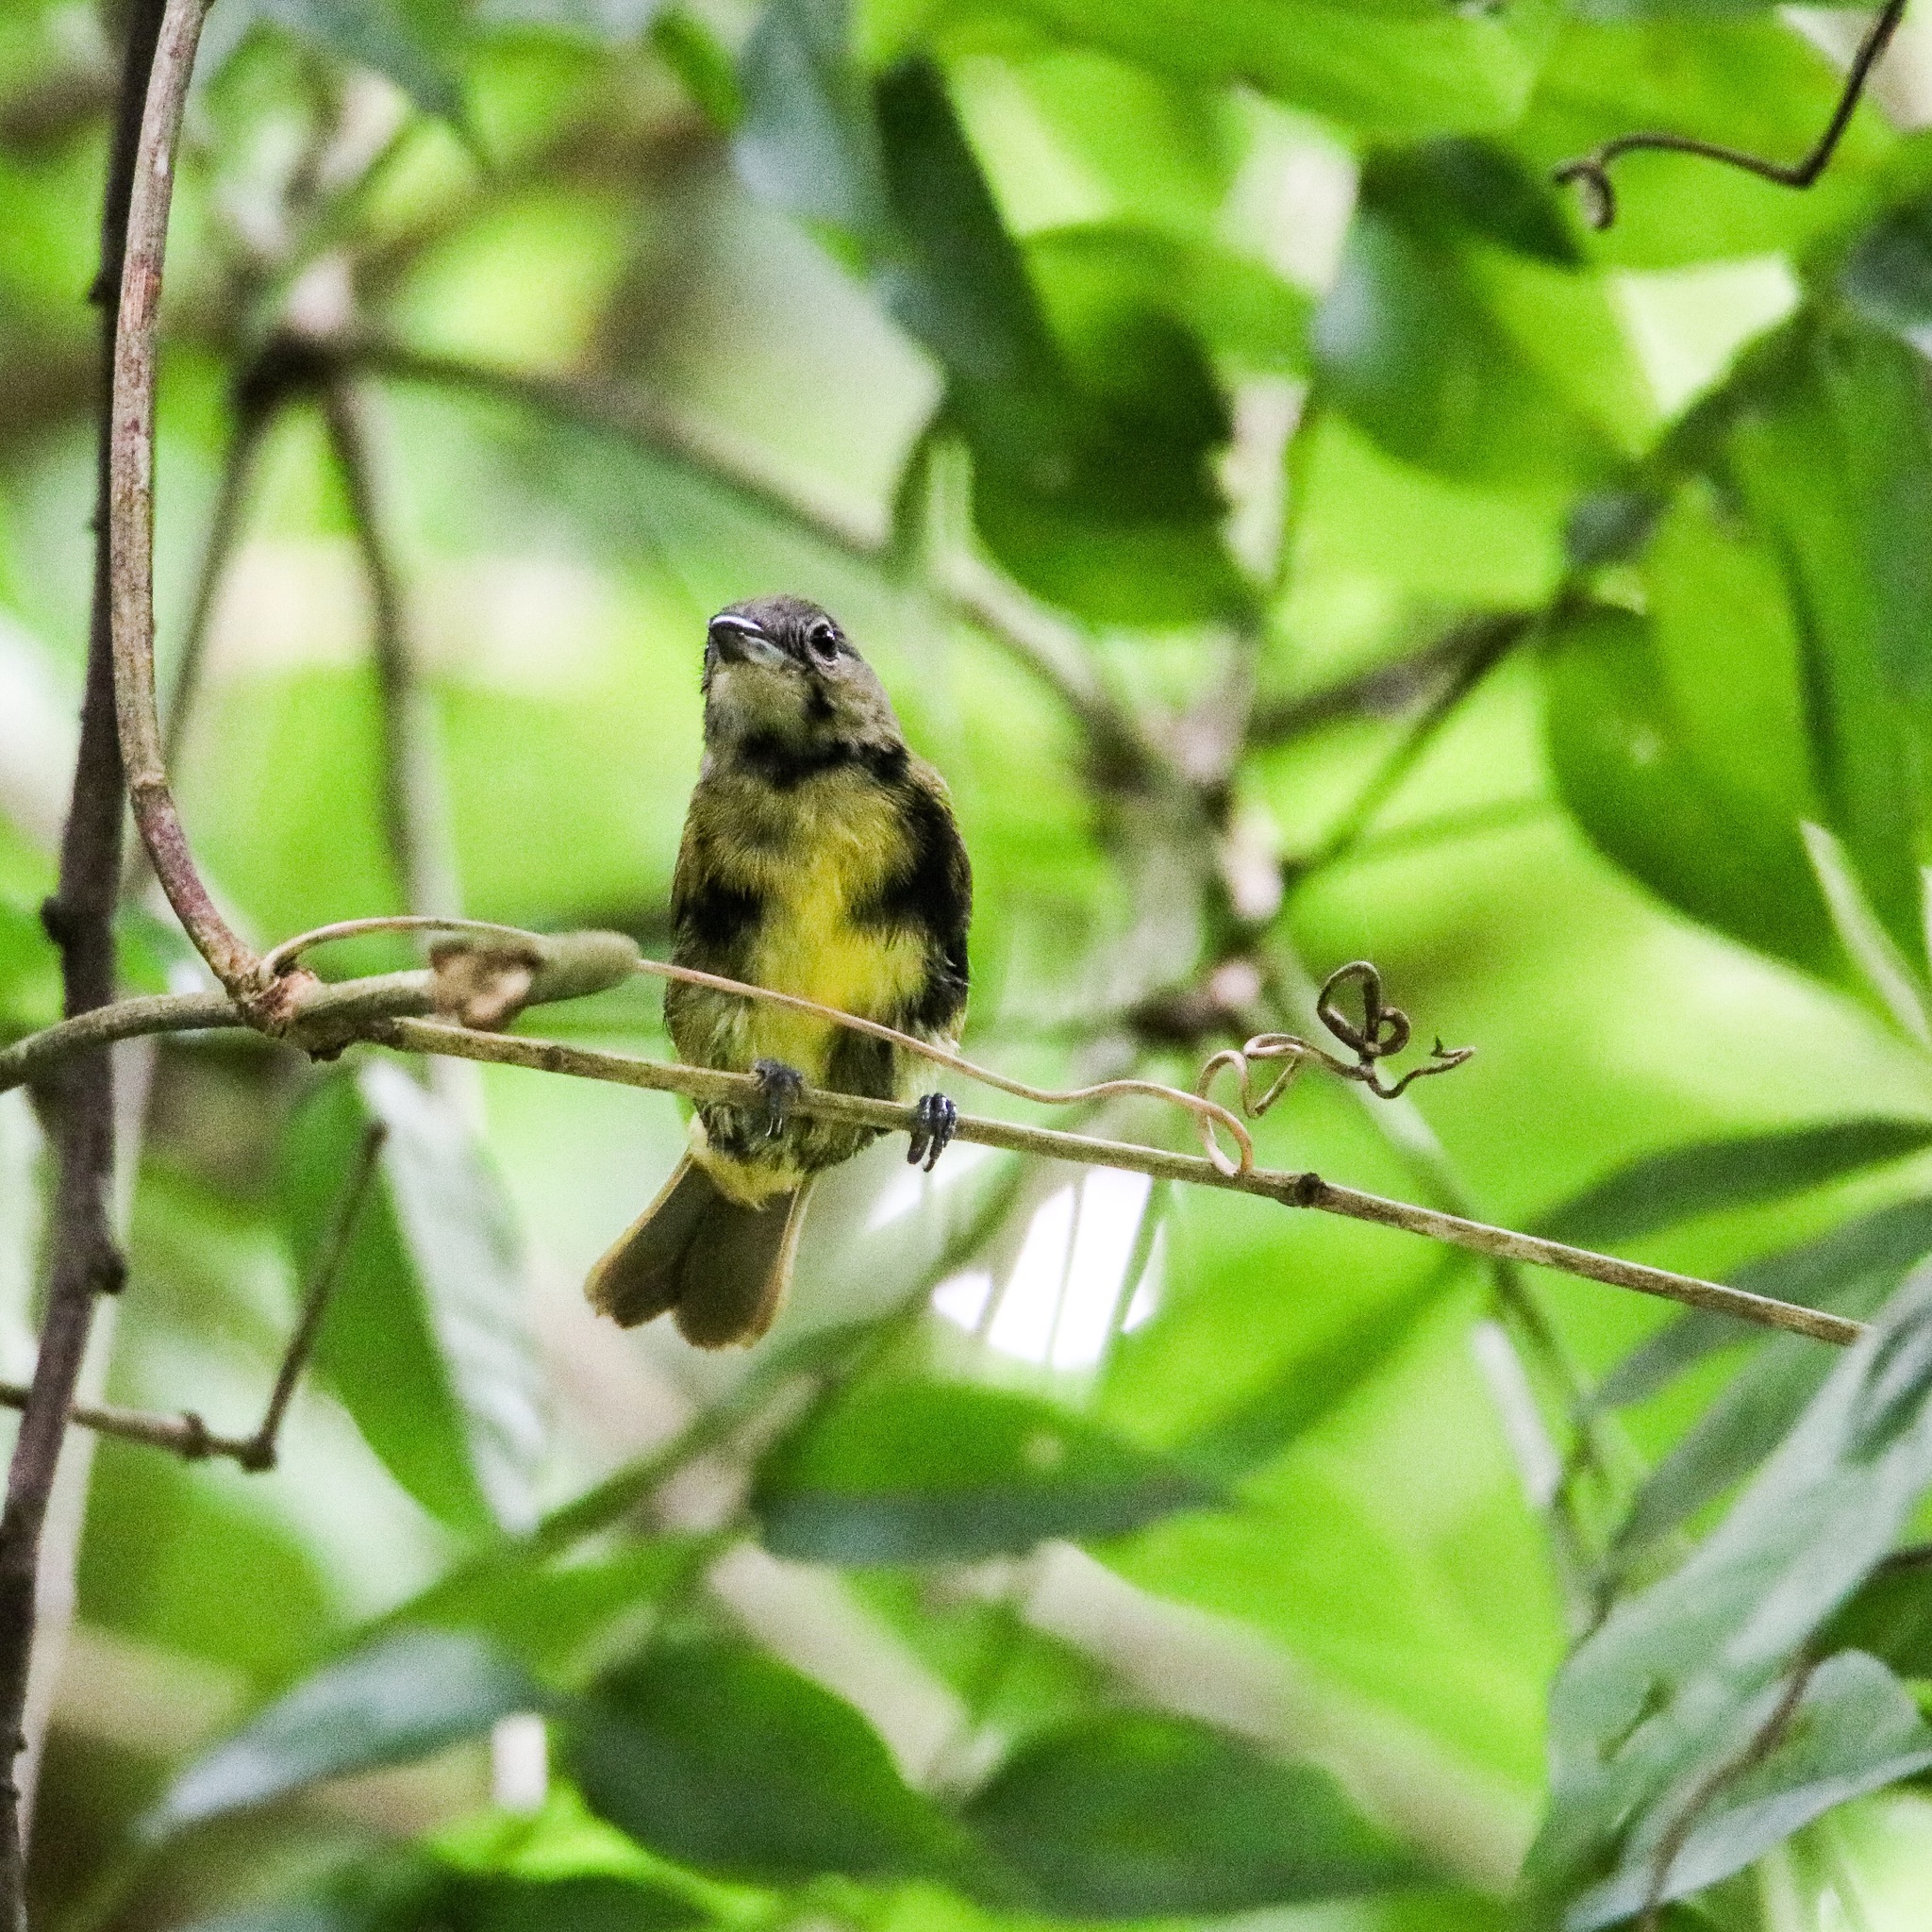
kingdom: Animalia
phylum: Chordata
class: Aves
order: Passeriformes
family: Thraupidae
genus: Loriotus
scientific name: Loriotus luctuosus
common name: White-shouldered tanager
